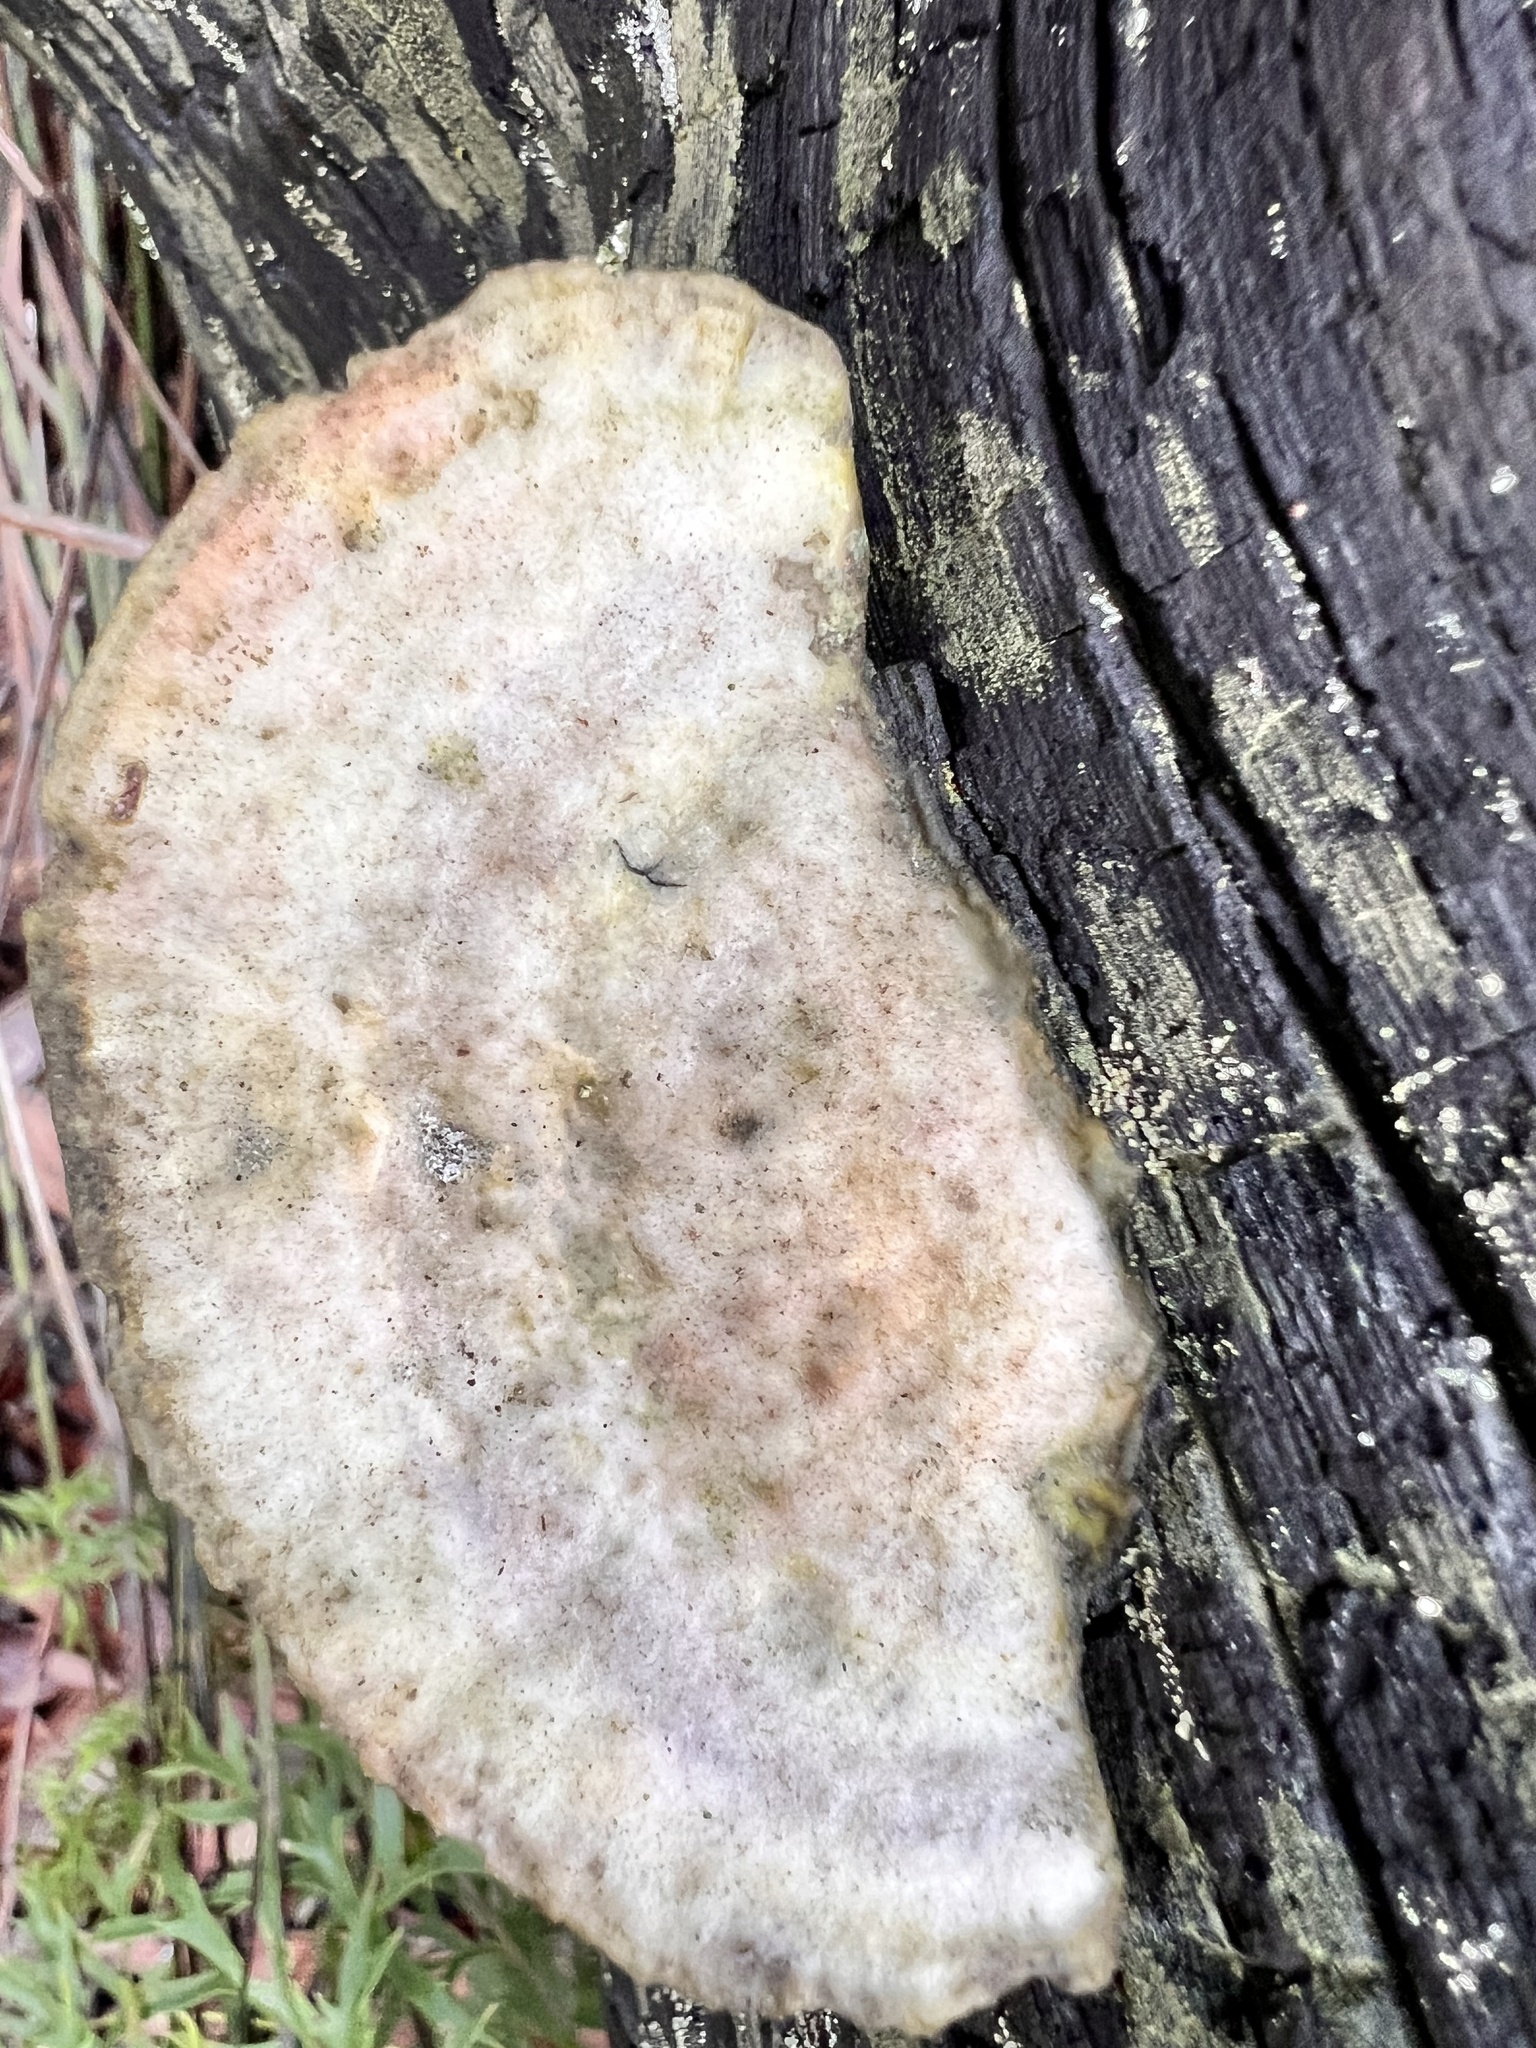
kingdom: Fungi
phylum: Basidiomycota
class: Agaricomycetes
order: Polyporales
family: Polyporaceae
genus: Trametes
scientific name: Trametes coccinea
